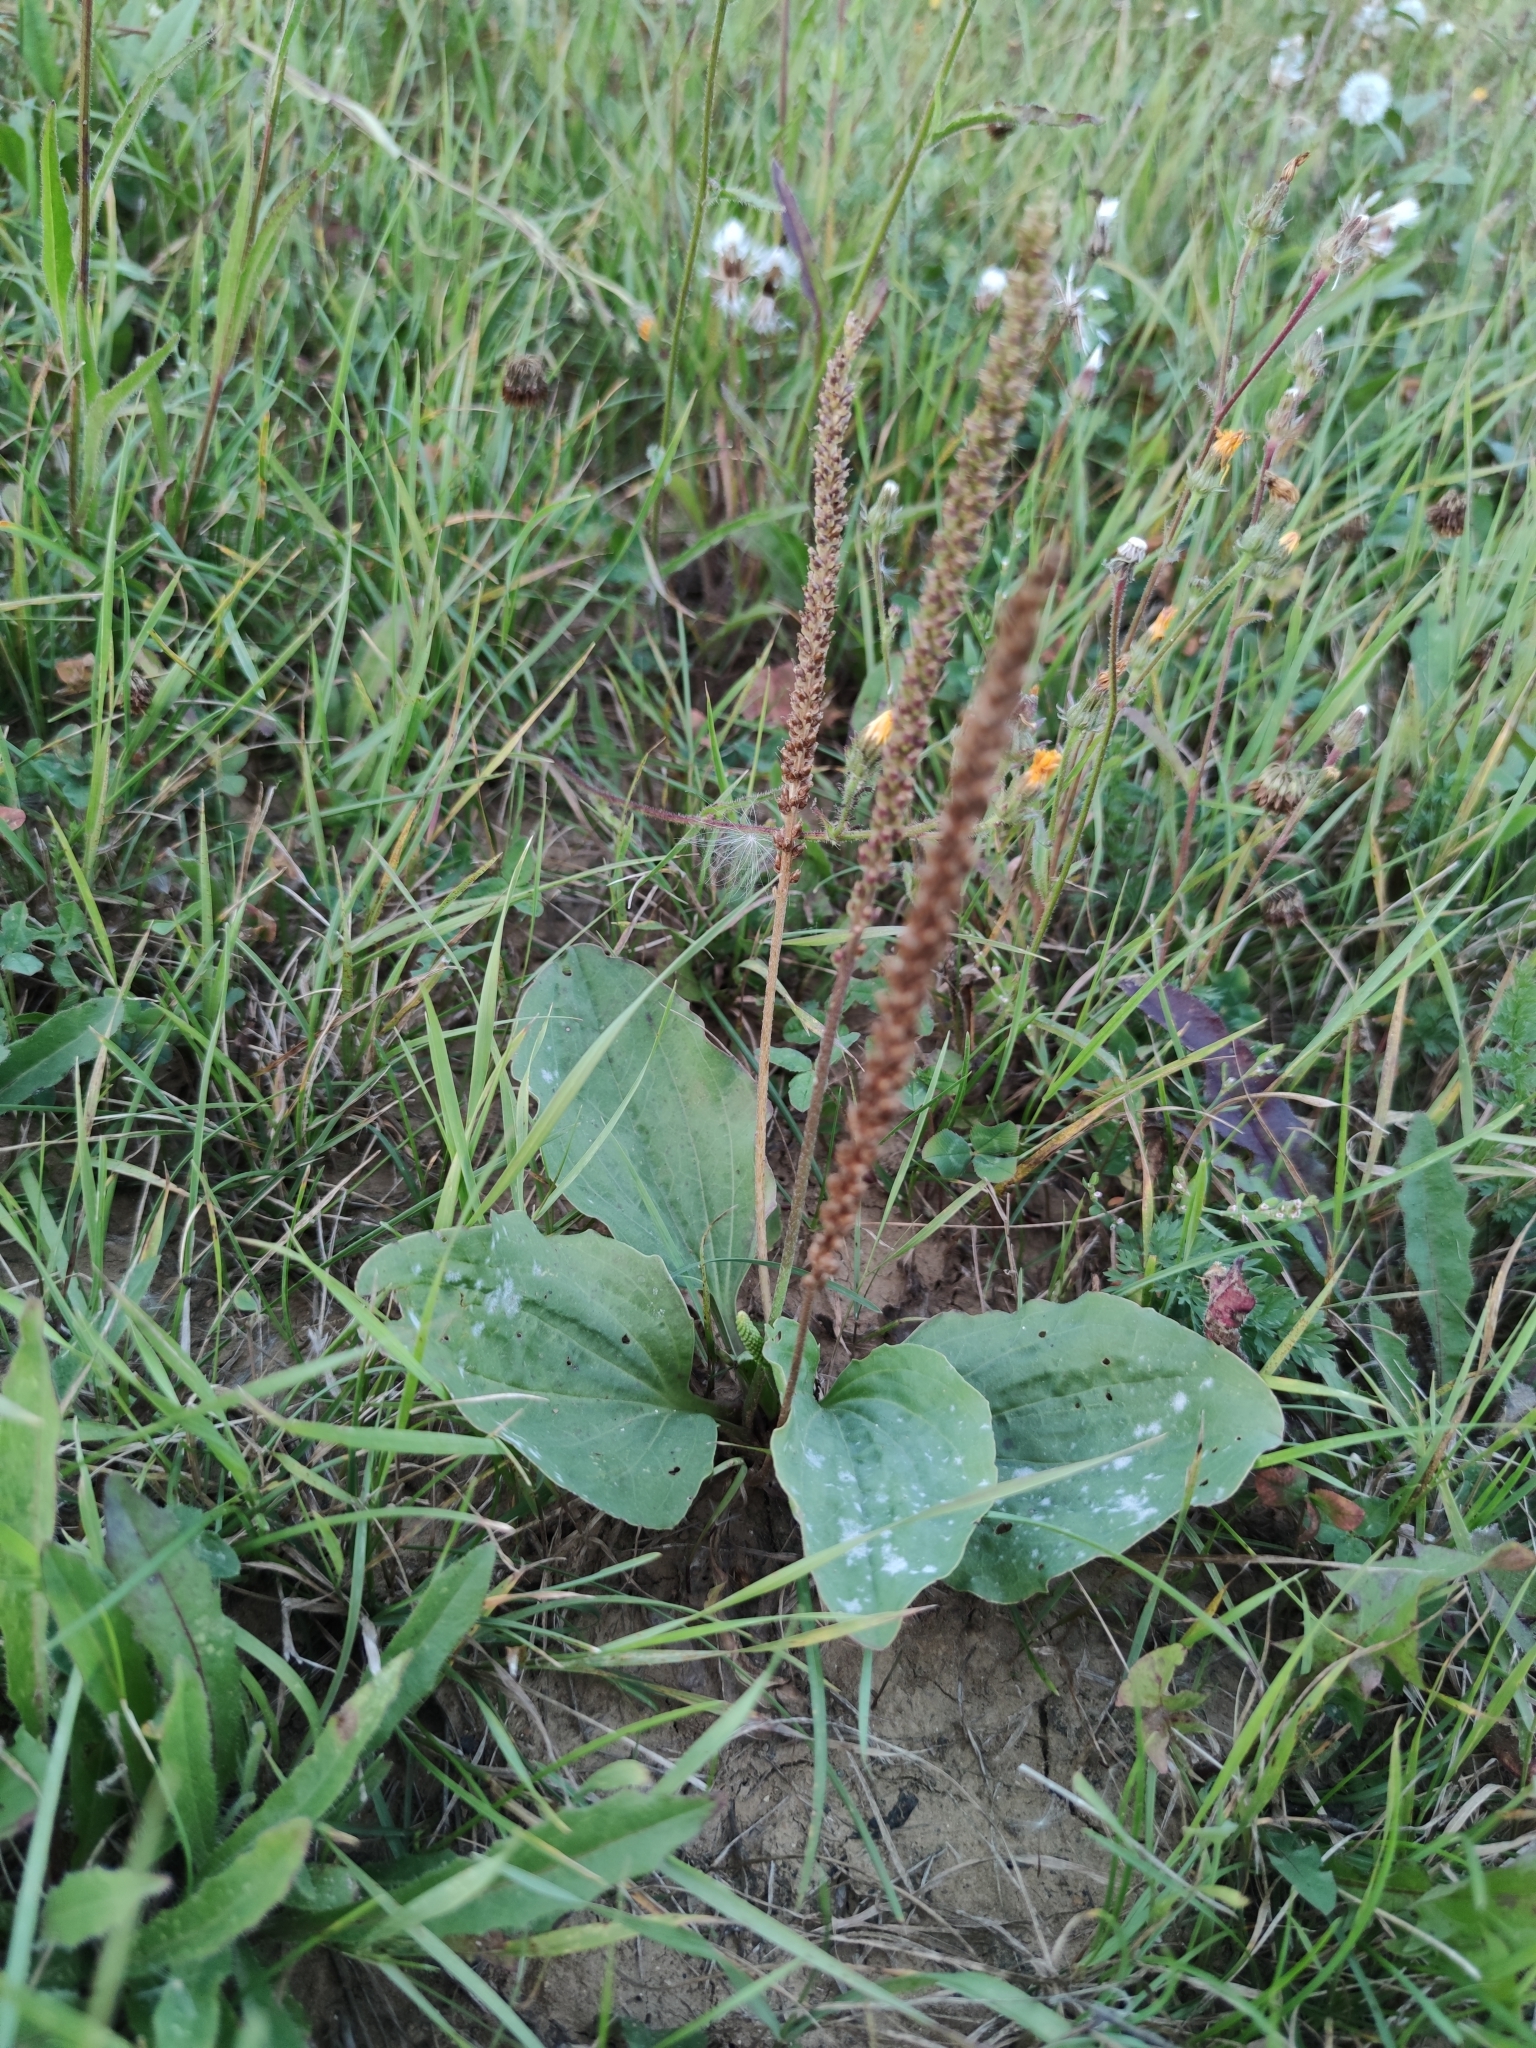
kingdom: Plantae
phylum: Tracheophyta
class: Magnoliopsida
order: Lamiales
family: Plantaginaceae
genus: Plantago
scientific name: Plantago major
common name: Common plantain
